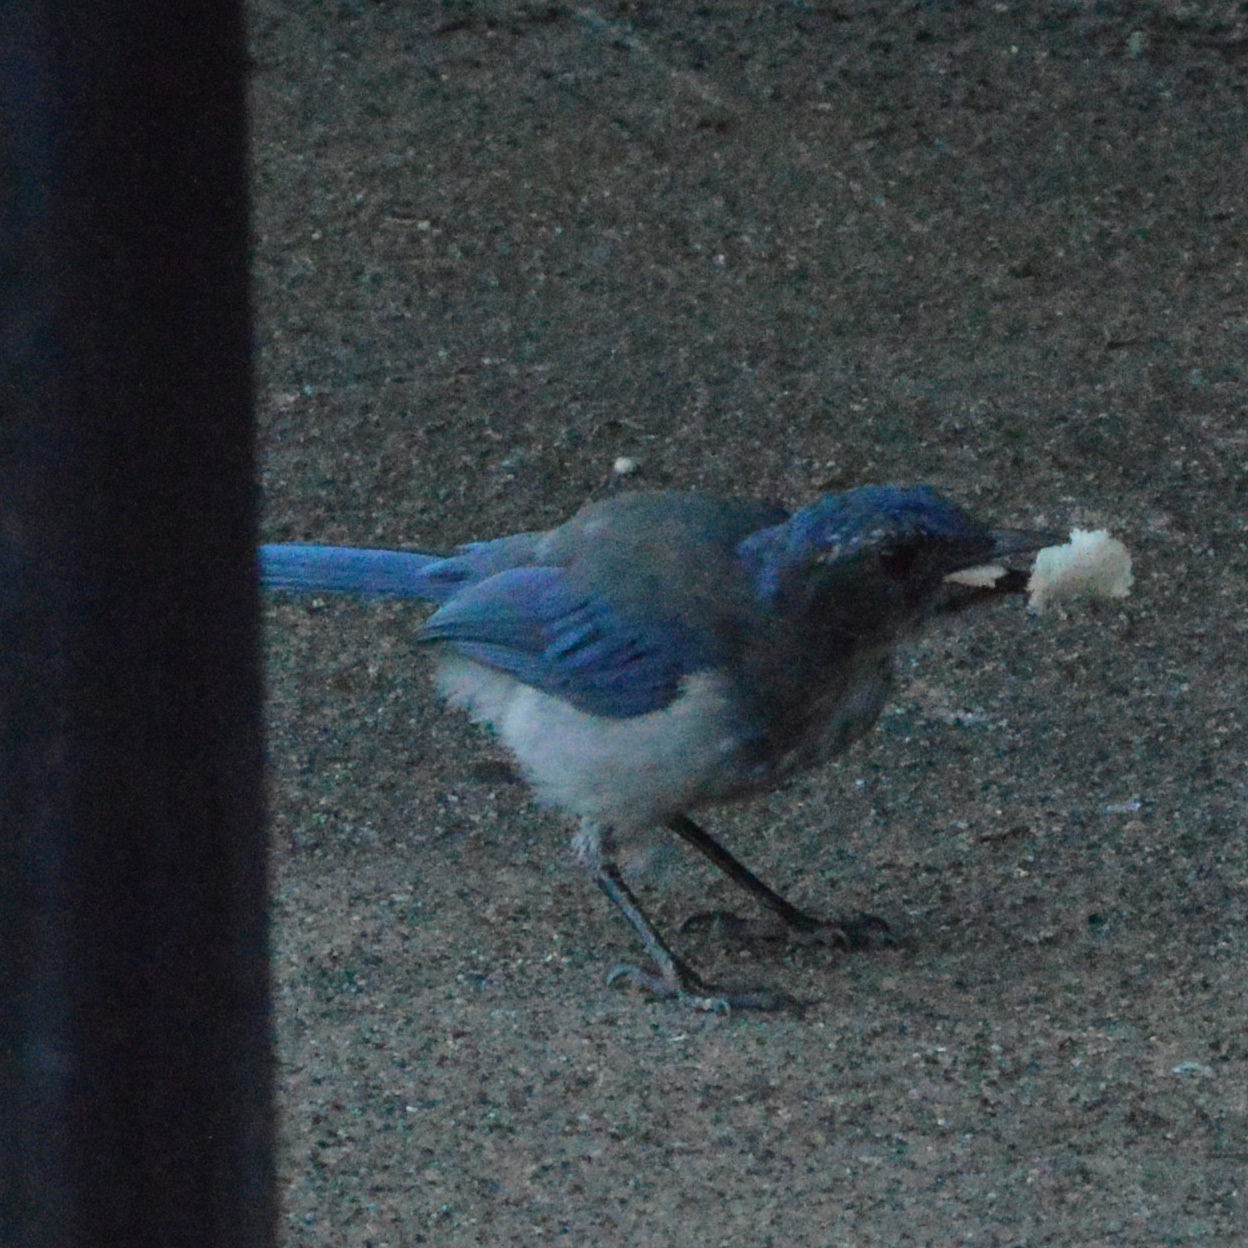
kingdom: Animalia
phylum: Chordata
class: Aves
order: Passeriformes
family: Corvidae
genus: Aphelocoma
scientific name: Aphelocoma californica
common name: California scrub-jay
